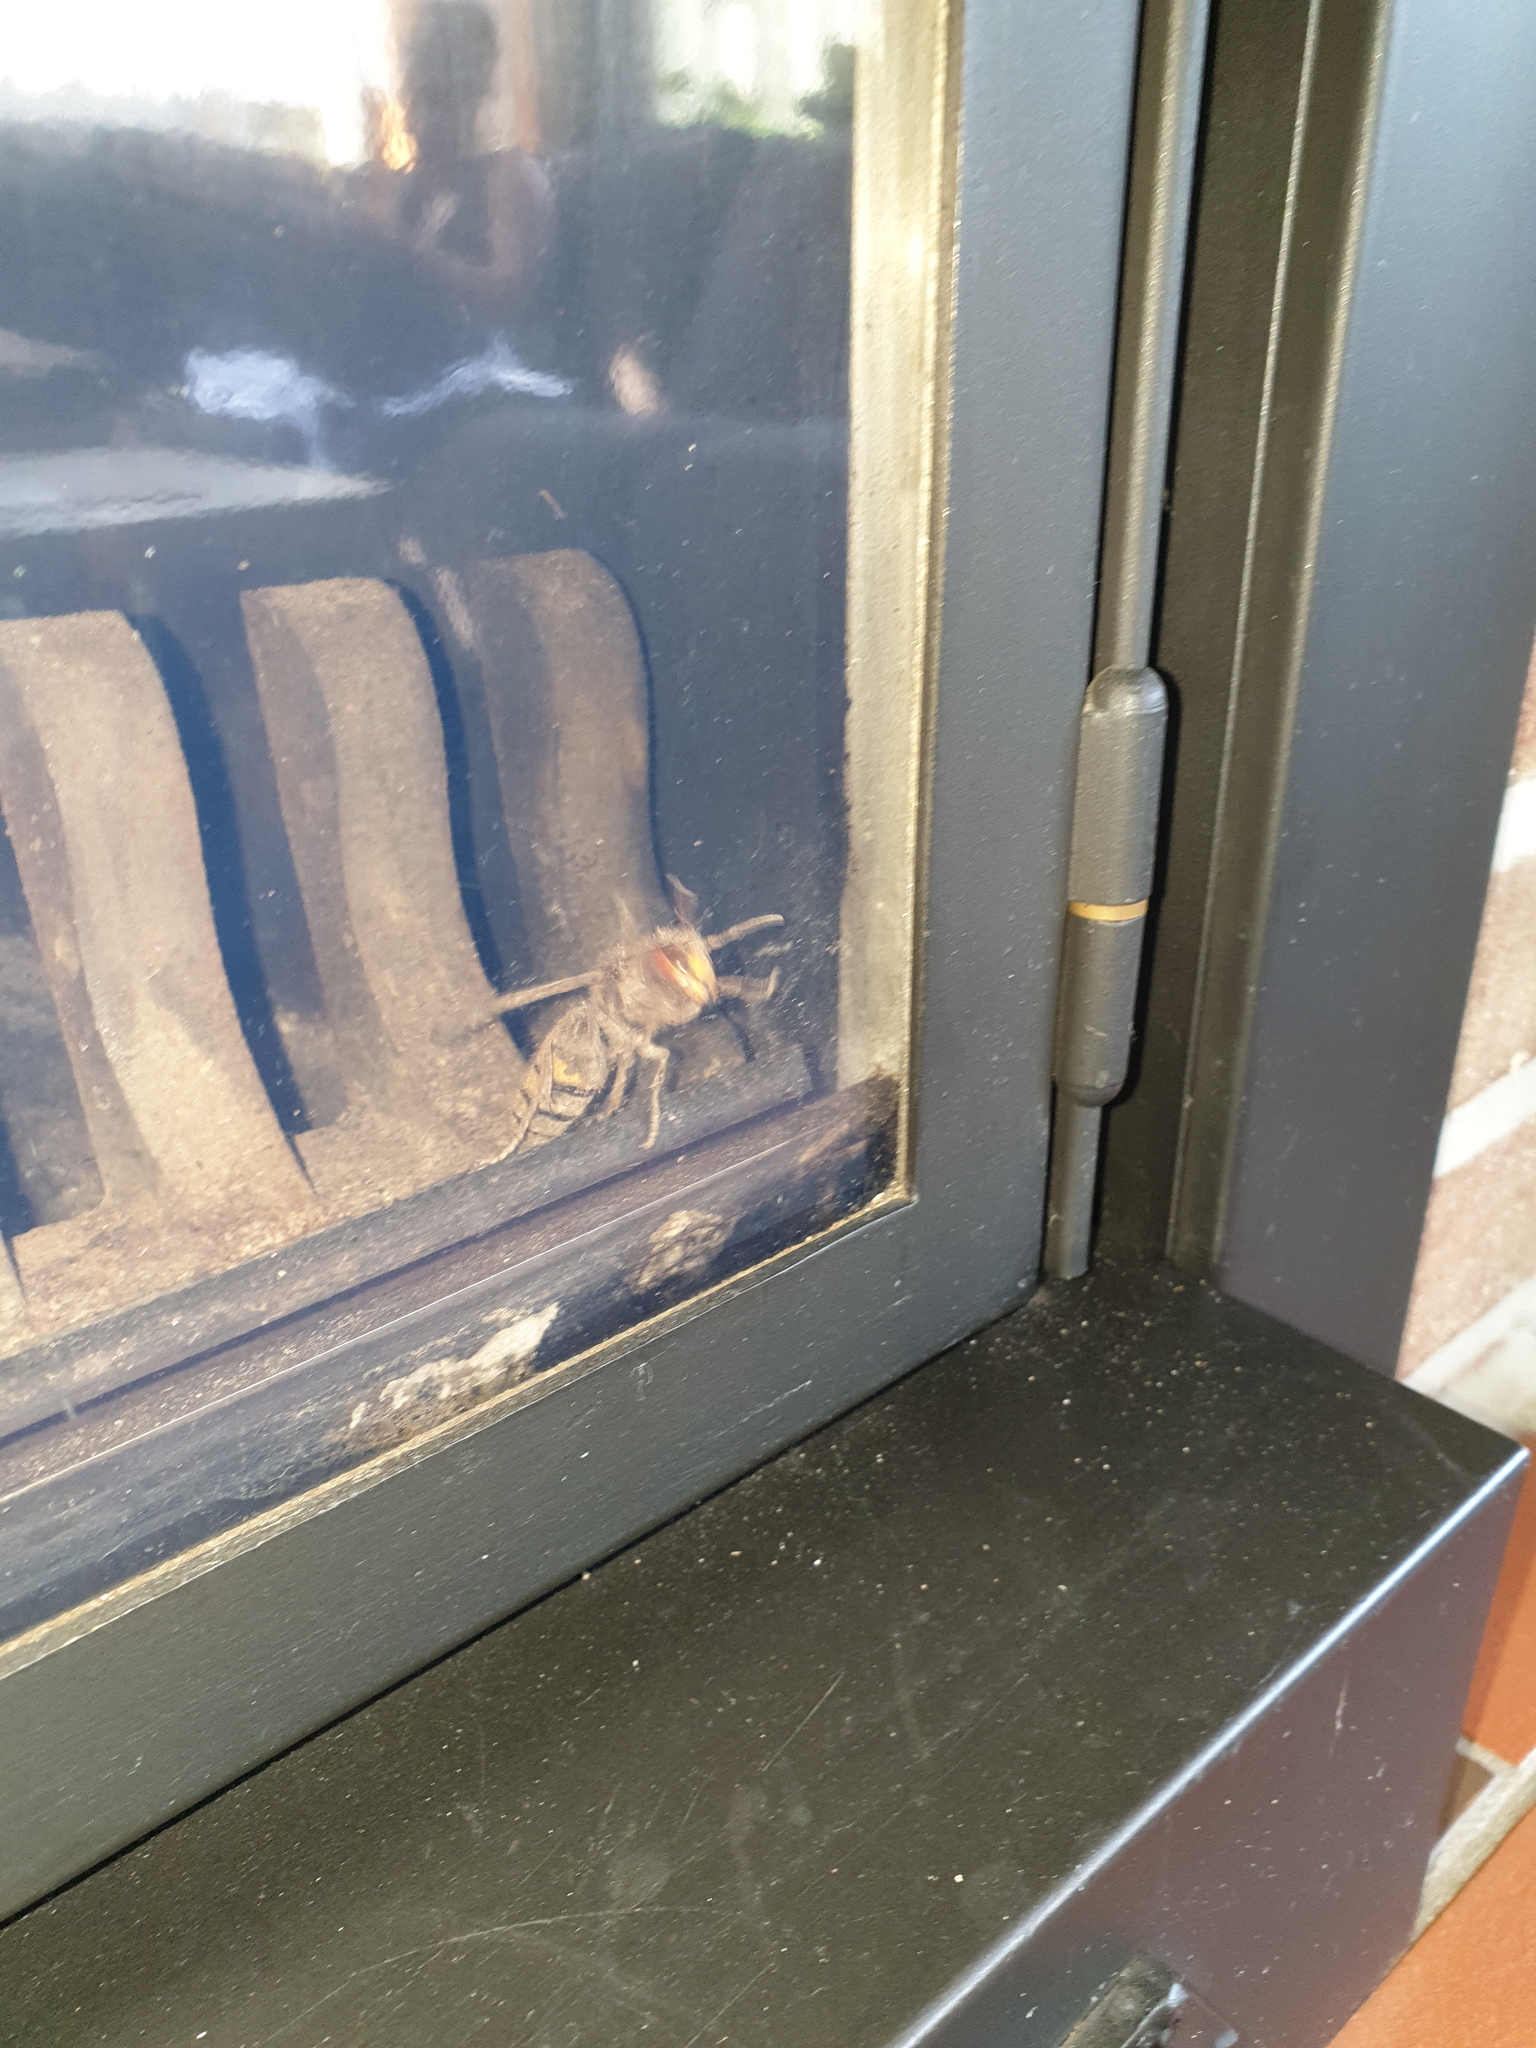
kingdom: Animalia
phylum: Arthropoda
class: Insecta
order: Hymenoptera
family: Vespidae
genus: Vespa
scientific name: Vespa crabro
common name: Hornet
